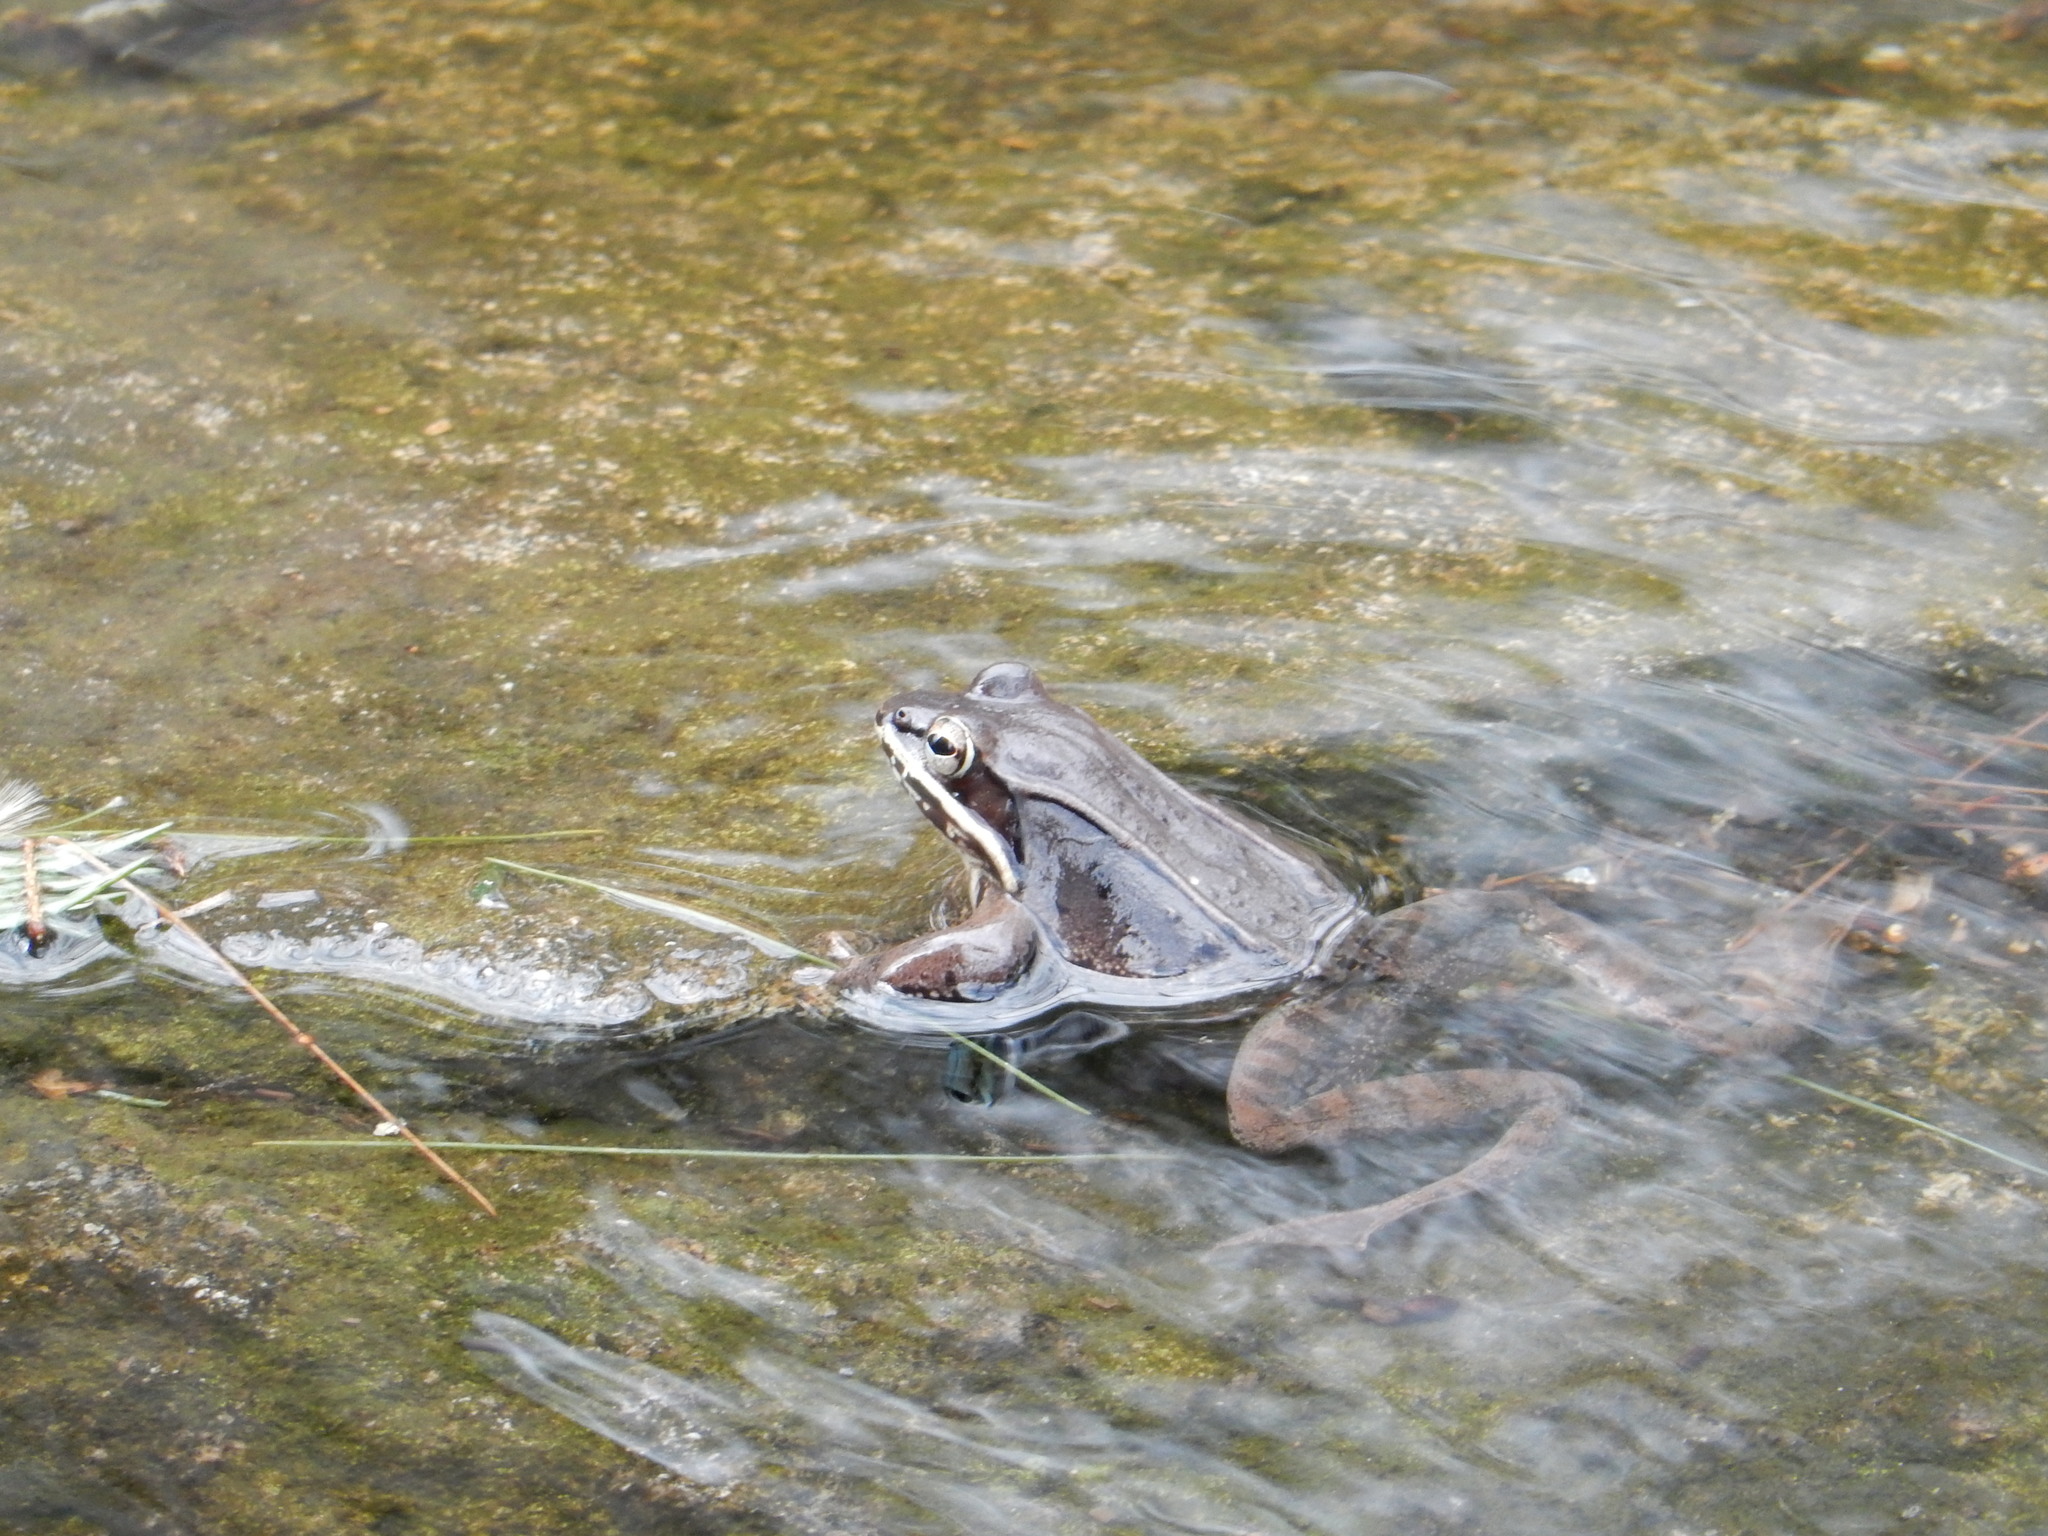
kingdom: Animalia
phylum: Chordata
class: Amphibia
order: Anura
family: Ranidae
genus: Lithobates
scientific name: Lithobates sylvaticus
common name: Wood frog
